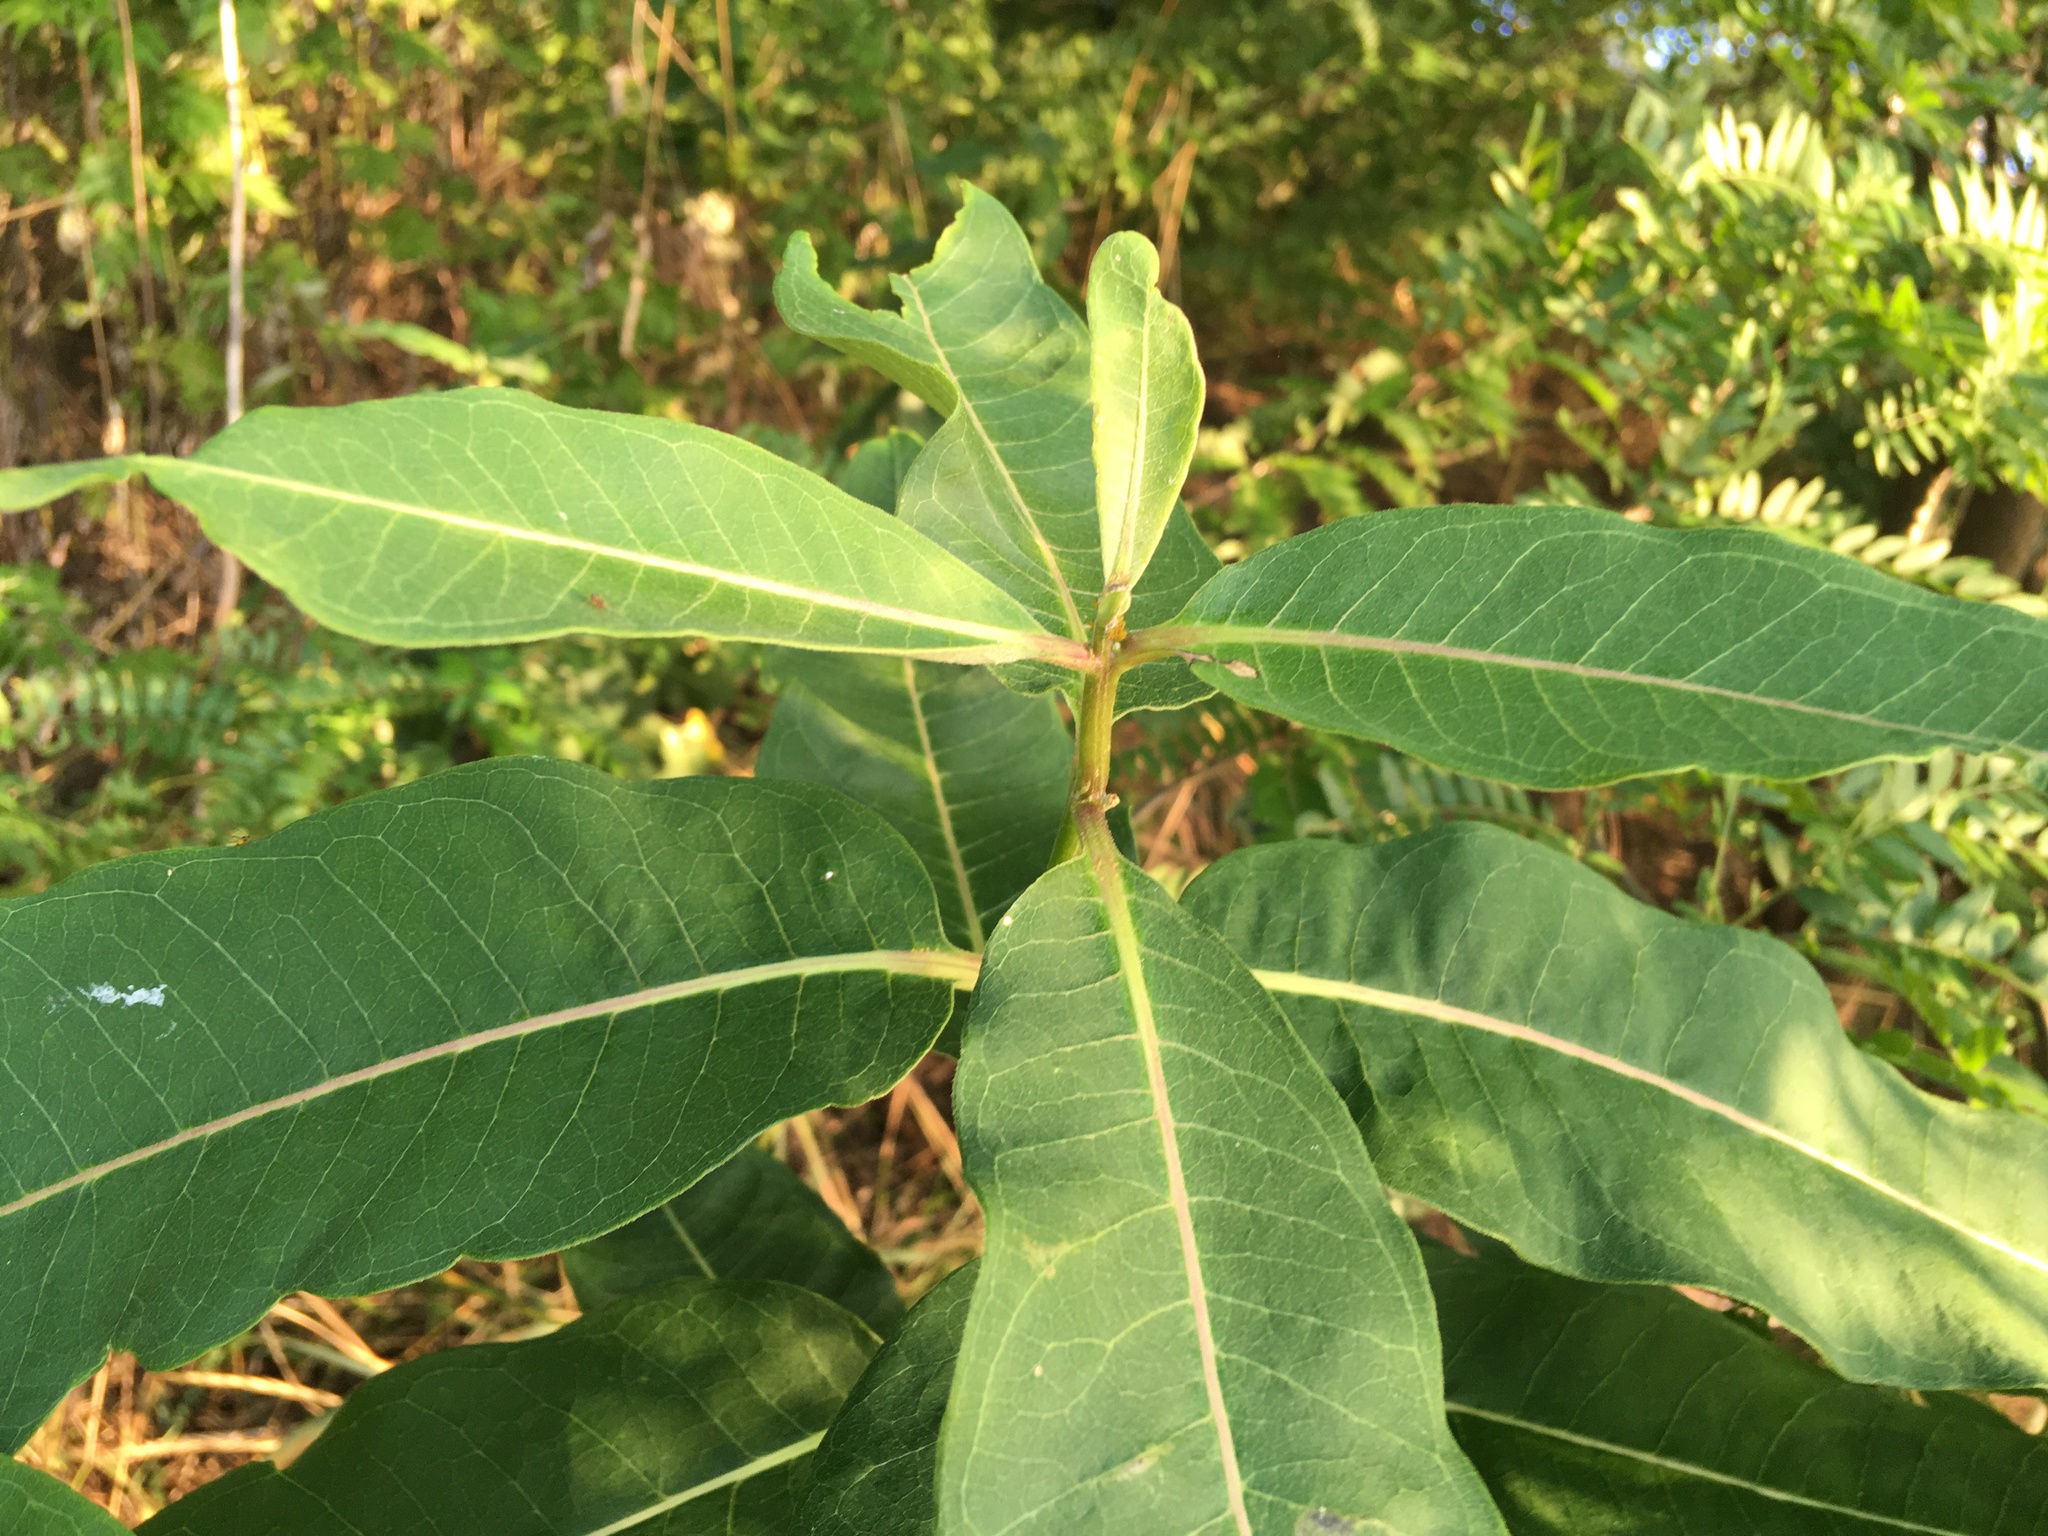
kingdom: Plantae
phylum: Tracheophyta
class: Magnoliopsida
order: Gentianales
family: Apocynaceae
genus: Asclepias
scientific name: Asclepias syriaca
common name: Common milkweed
